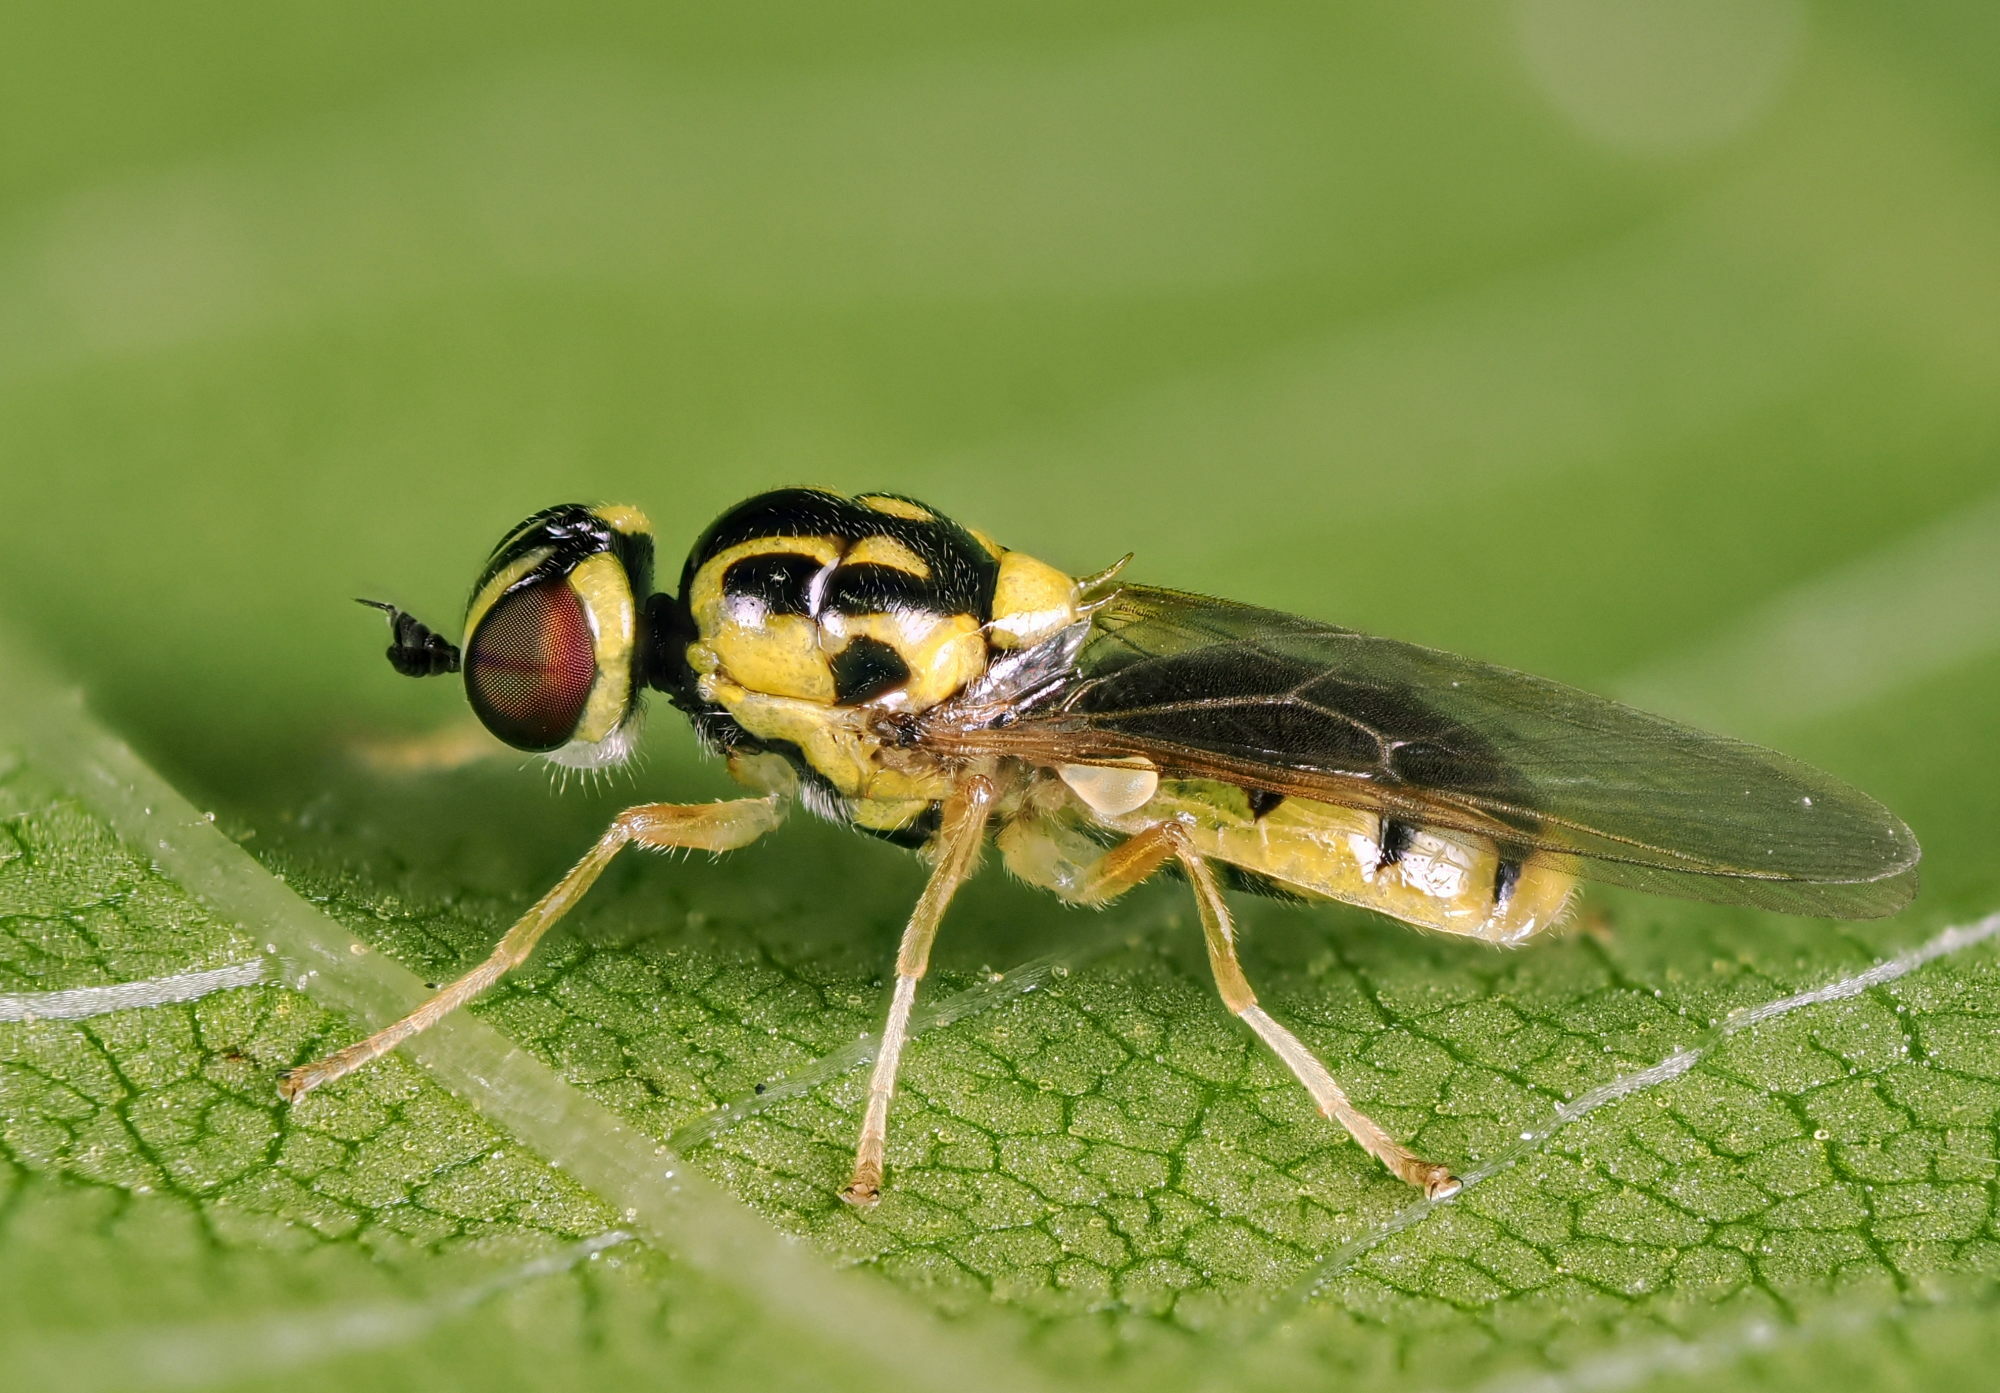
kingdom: Animalia
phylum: Arthropoda
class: Insecta
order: Diptera
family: Stratiomyidae
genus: Oxycera
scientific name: Oxycera nigricornis
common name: Delicate soldier
